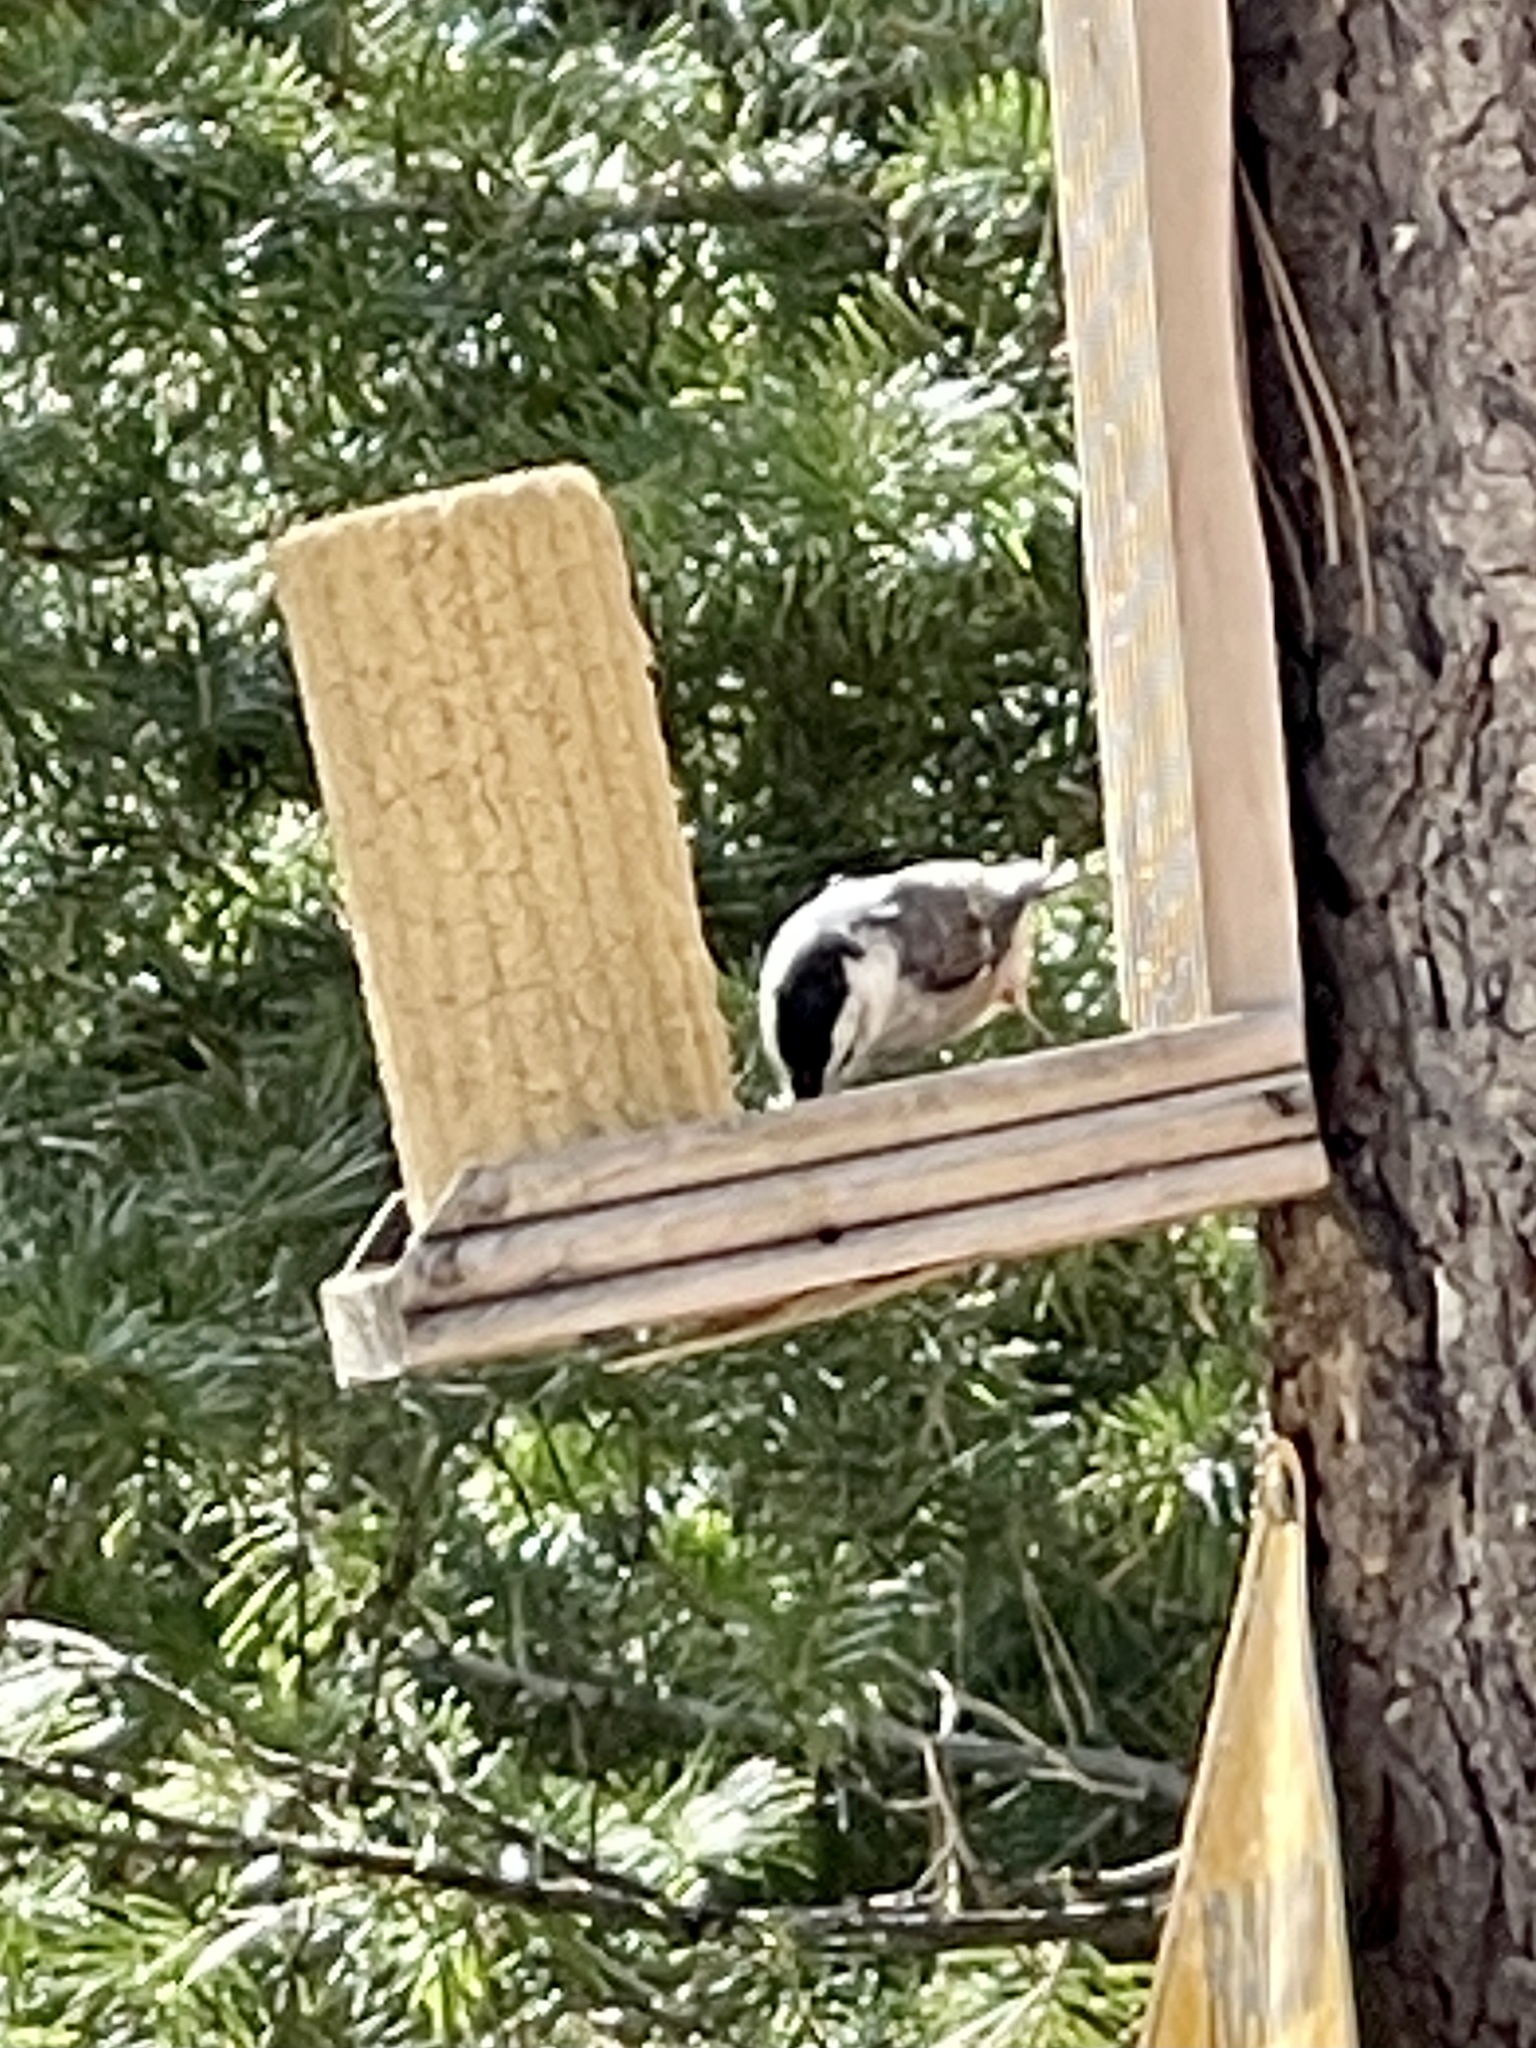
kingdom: Animalia
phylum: Chordata
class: Aves
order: Passeriformes
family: Sittidae
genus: Sitta
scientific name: Sitta carolinensis
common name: White-breasted nuthatch
